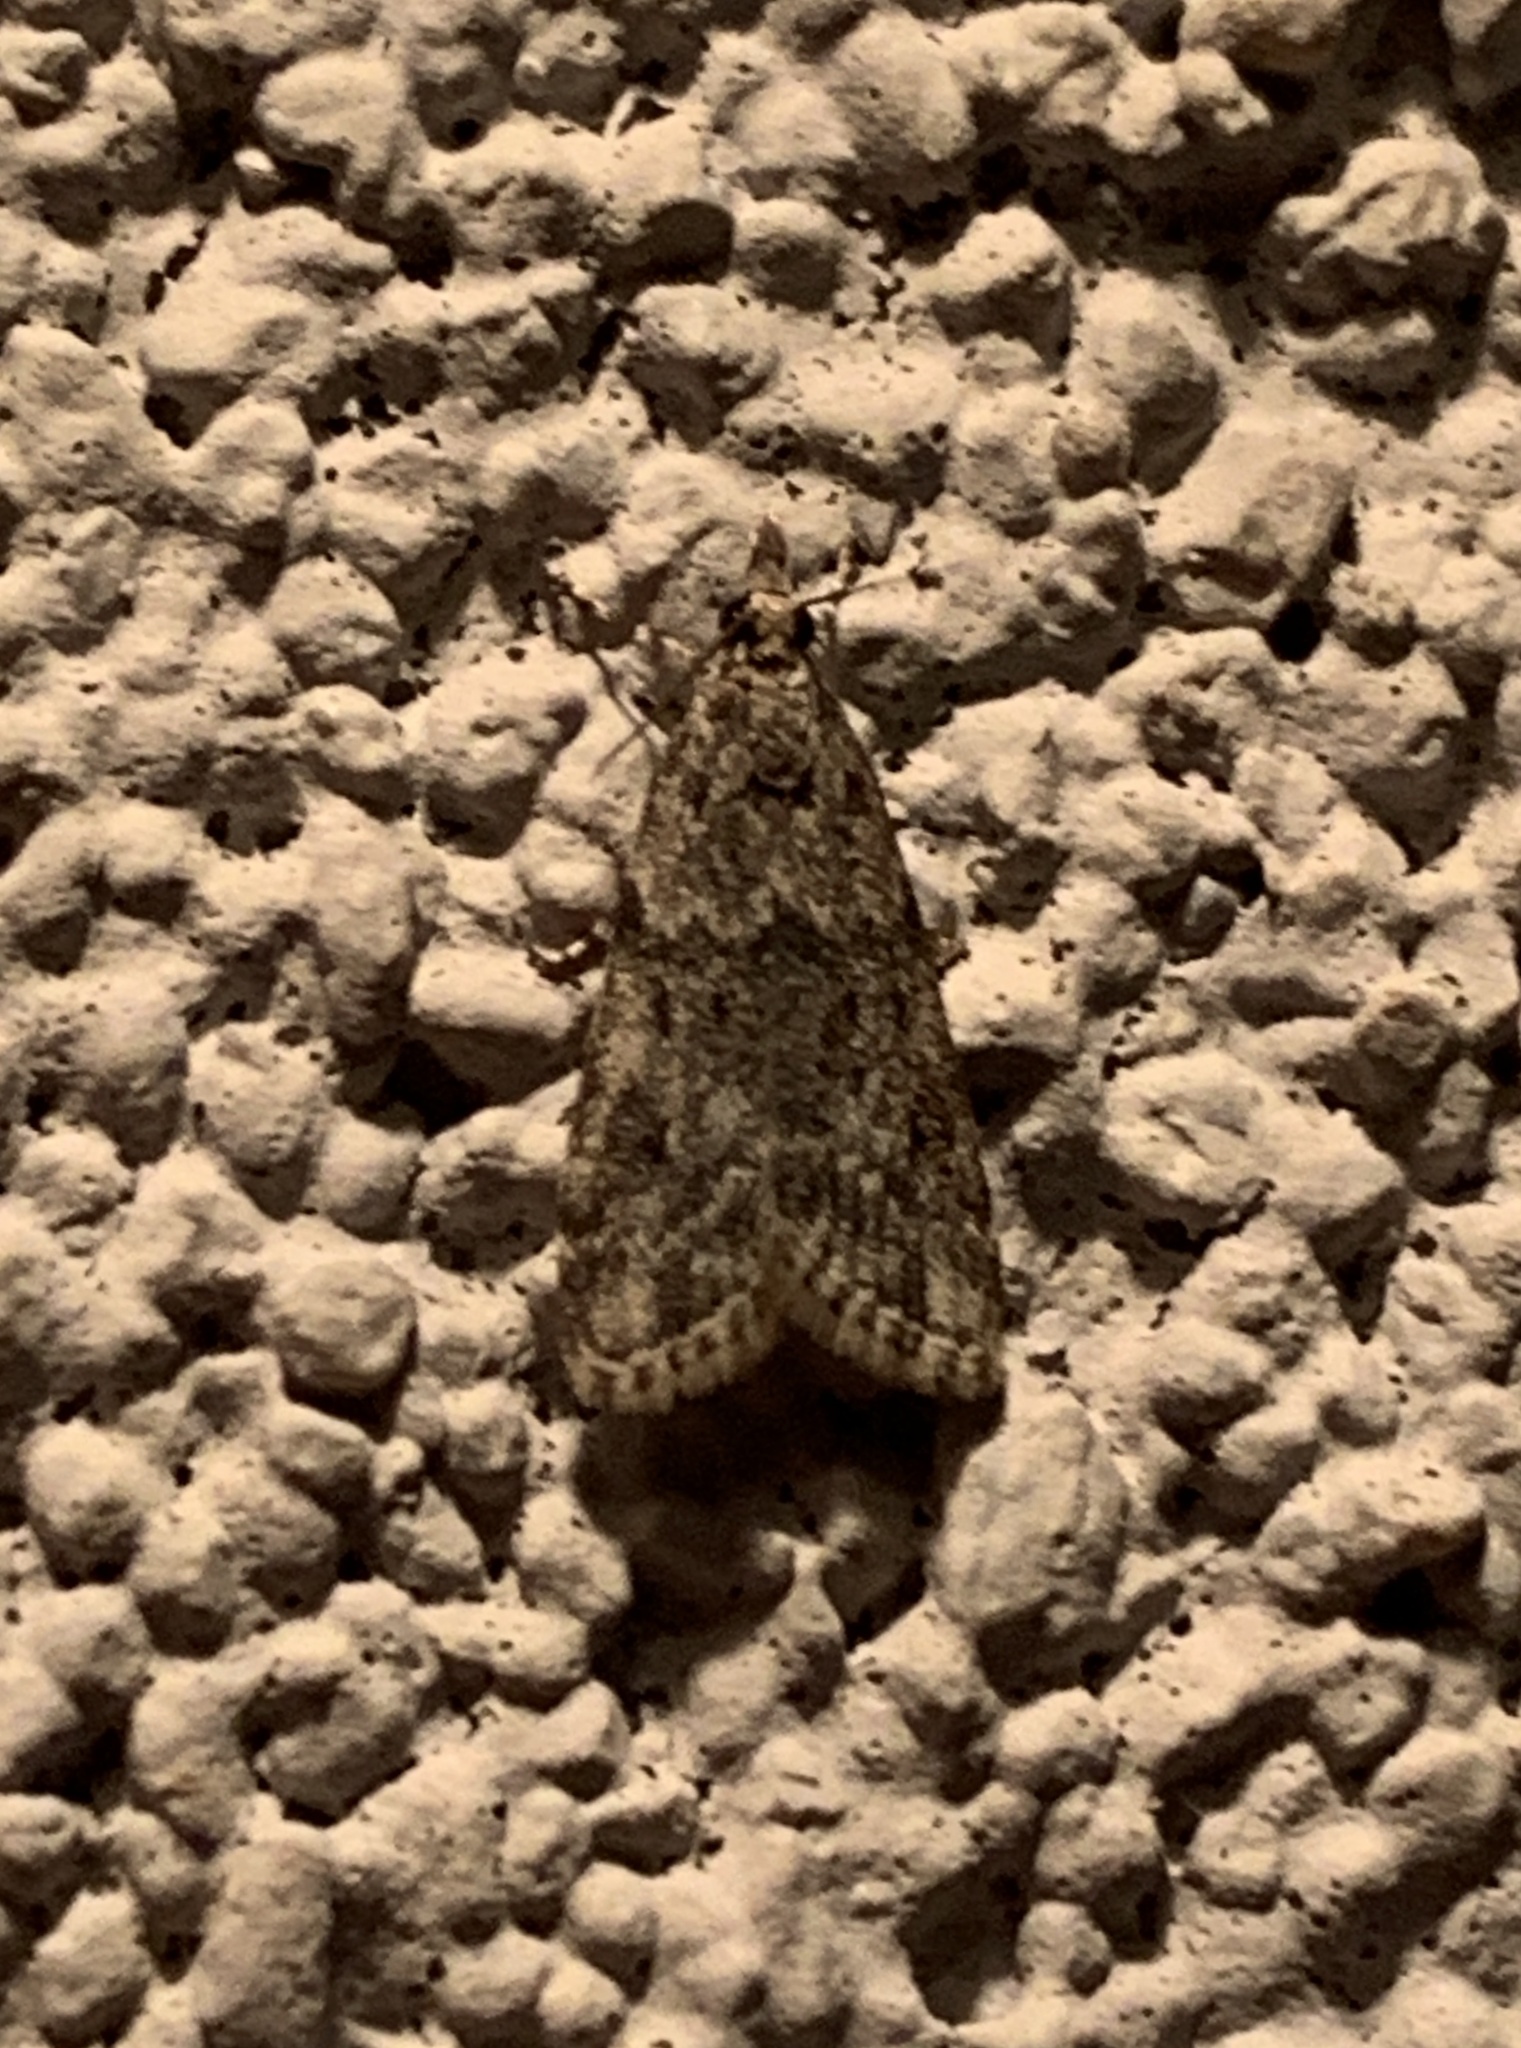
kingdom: Animalia
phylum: Arthropoda
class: Insecta
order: Lepidoptera
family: Crambidae
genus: Eudonia
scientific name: Eudonia heterosalis
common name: Mcdunnough's eudonia
